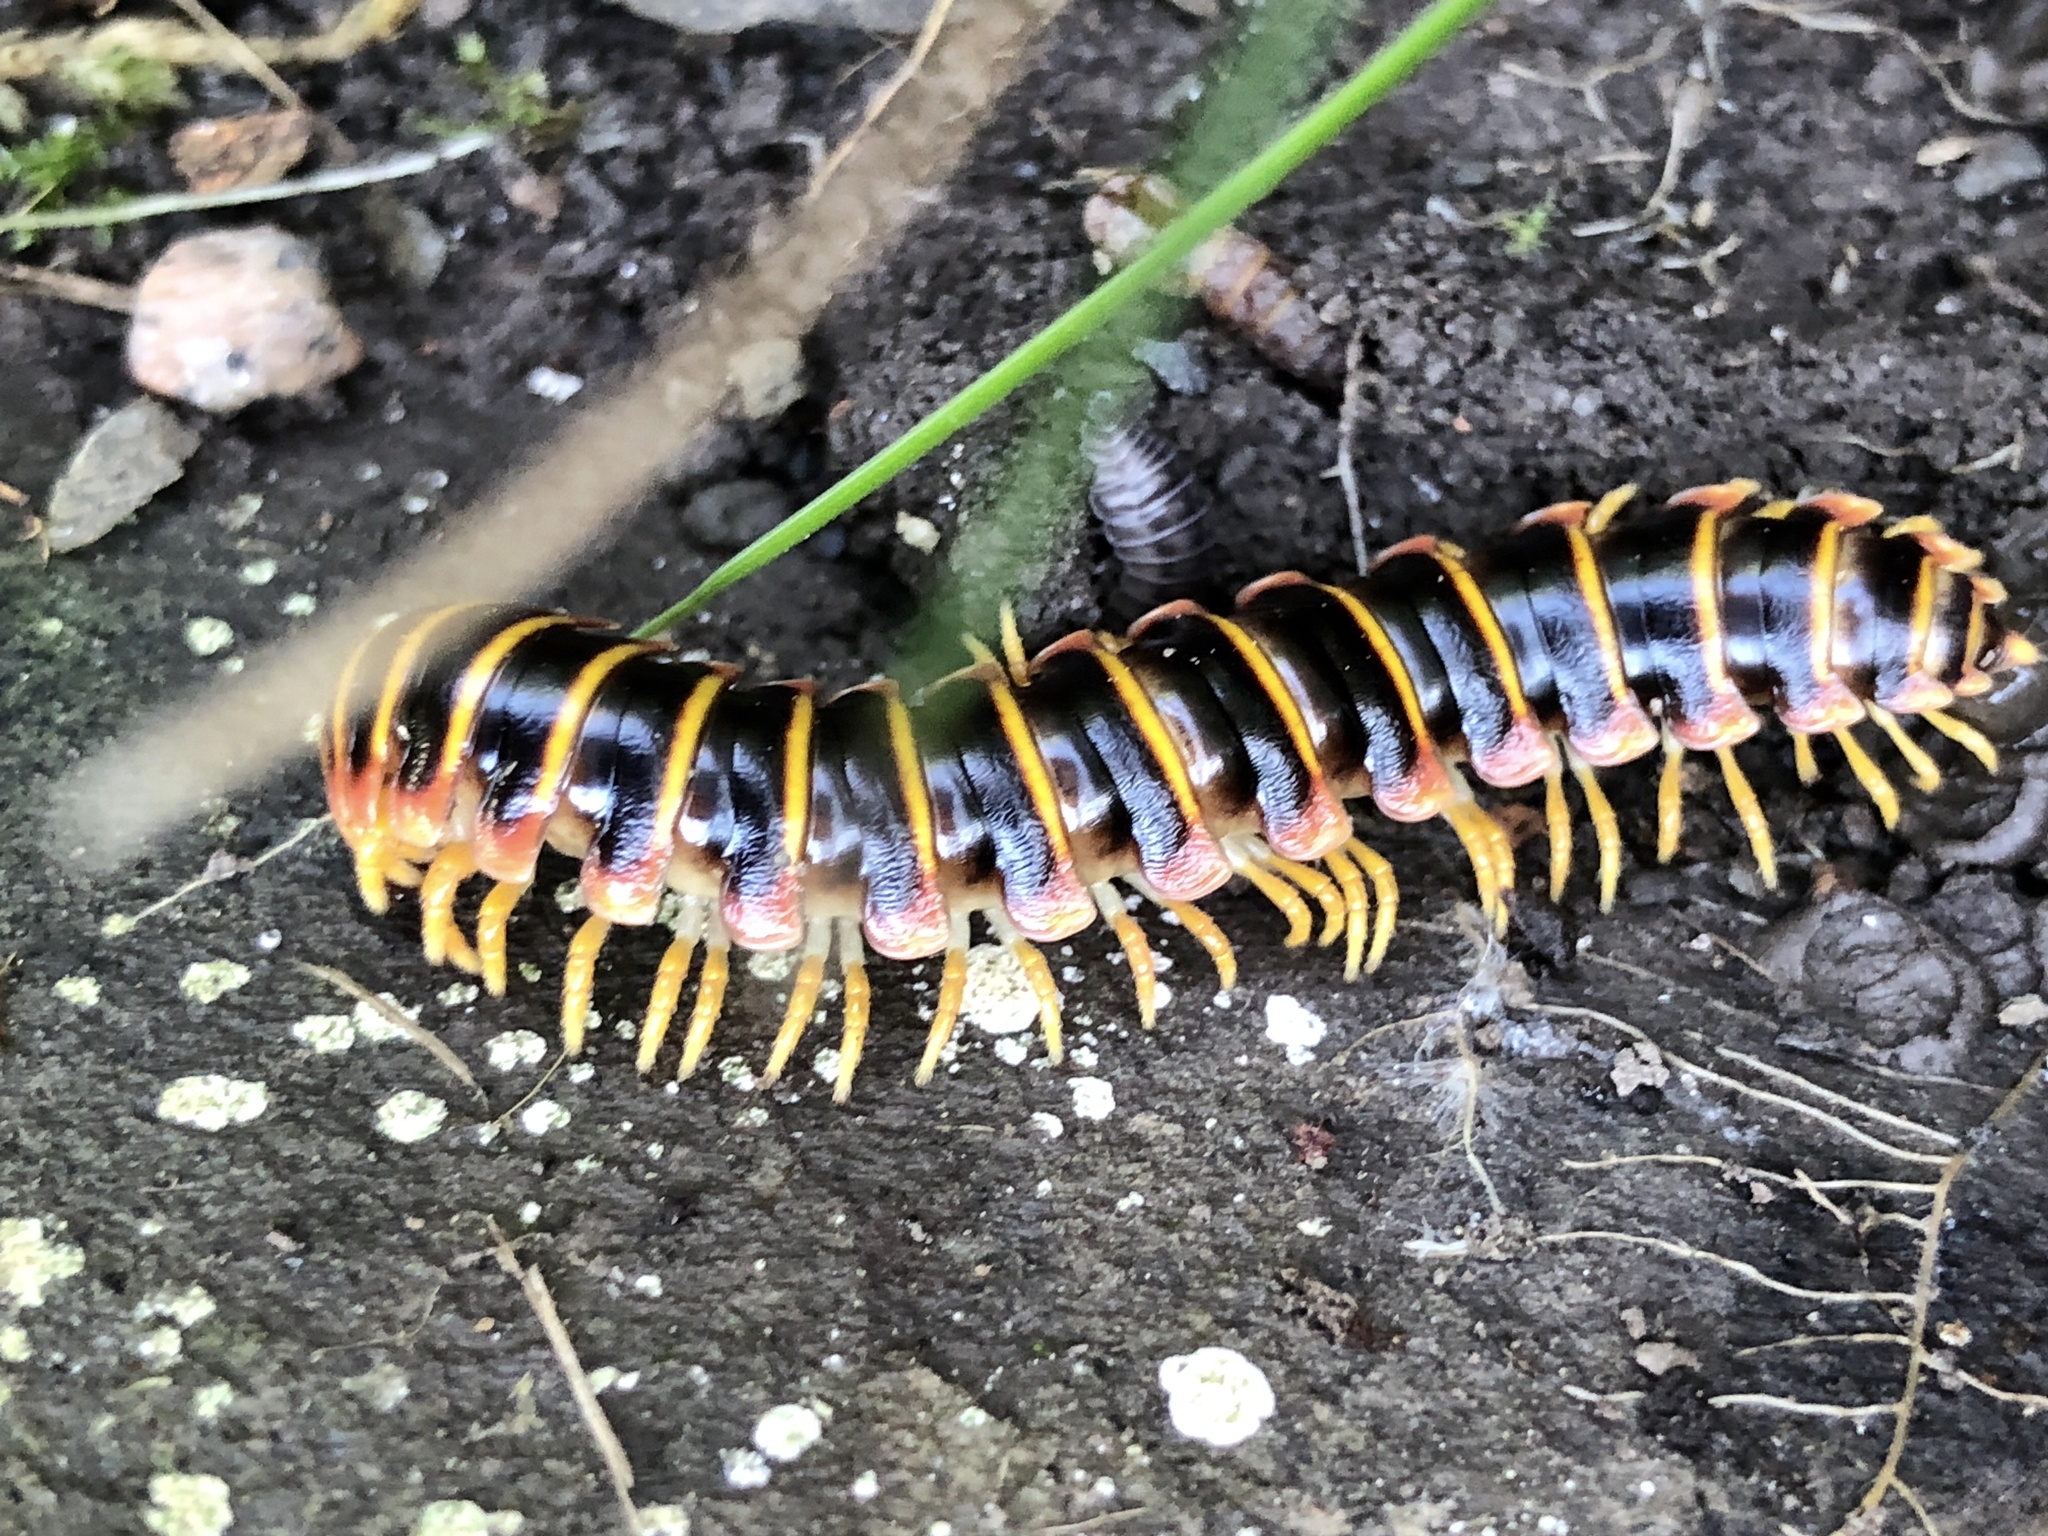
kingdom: Animalia
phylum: Arthropoda
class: Diplopoda
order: Polydesmida
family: Xystodesmidae
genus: Apheloria
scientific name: Apheloria virginiensis
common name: Black-and-gold flat millipede
